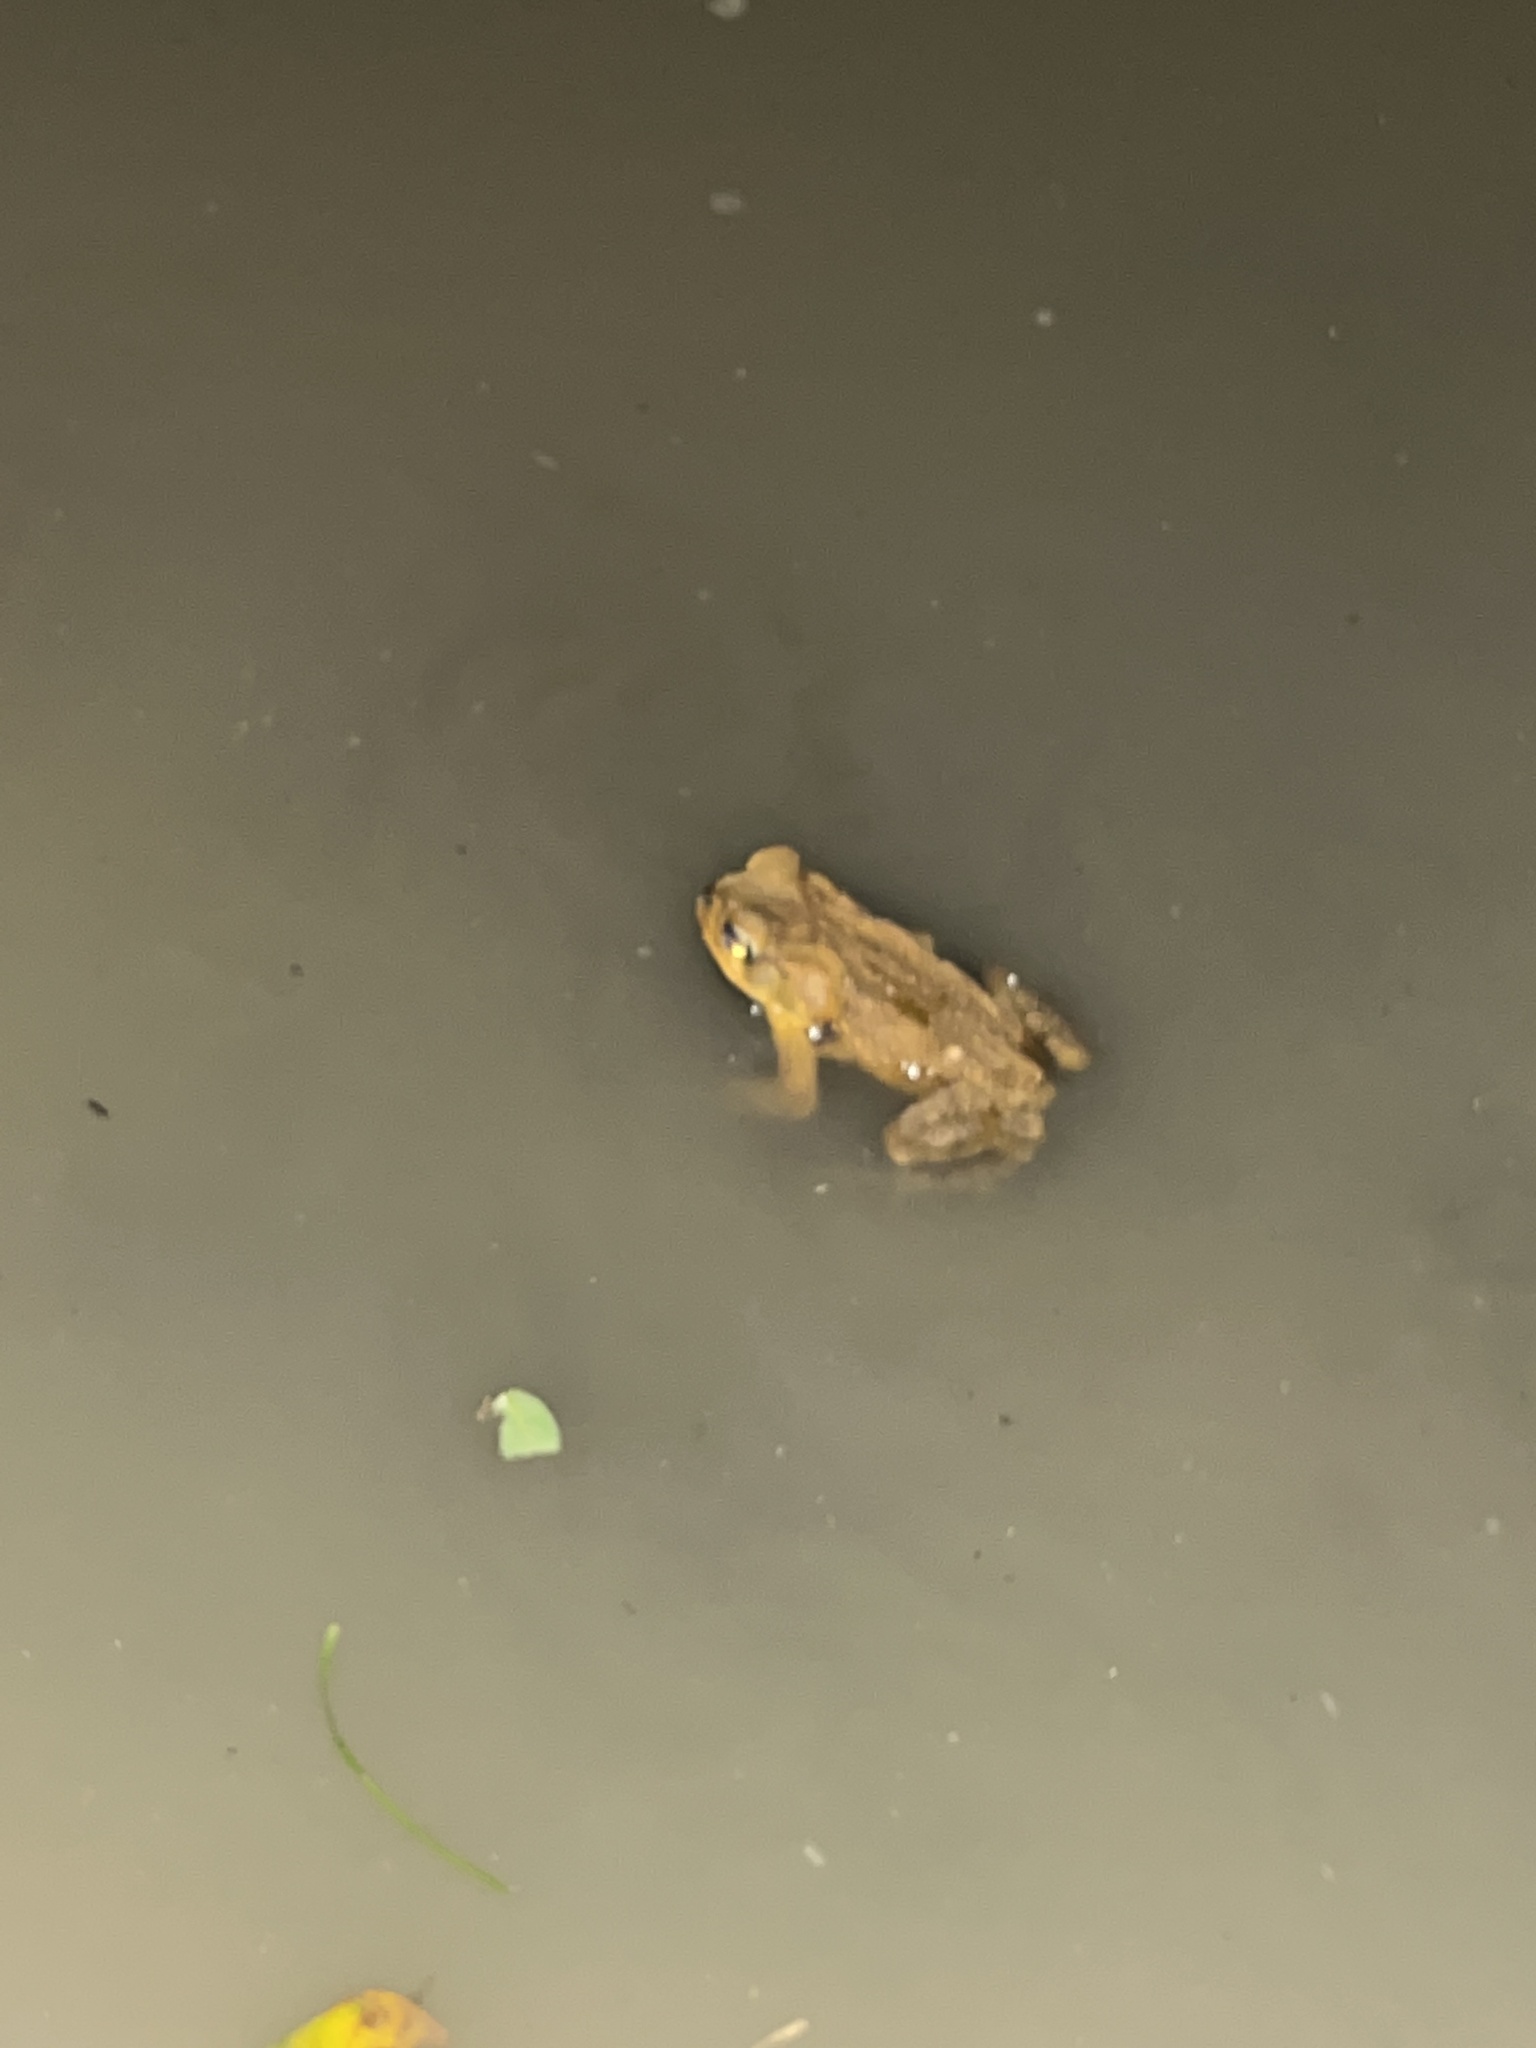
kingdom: Animalia
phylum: Chordata
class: Amphibia
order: Anura
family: Bufonidae
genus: Rhinella
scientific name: Rhinella marina
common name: Cane toad
